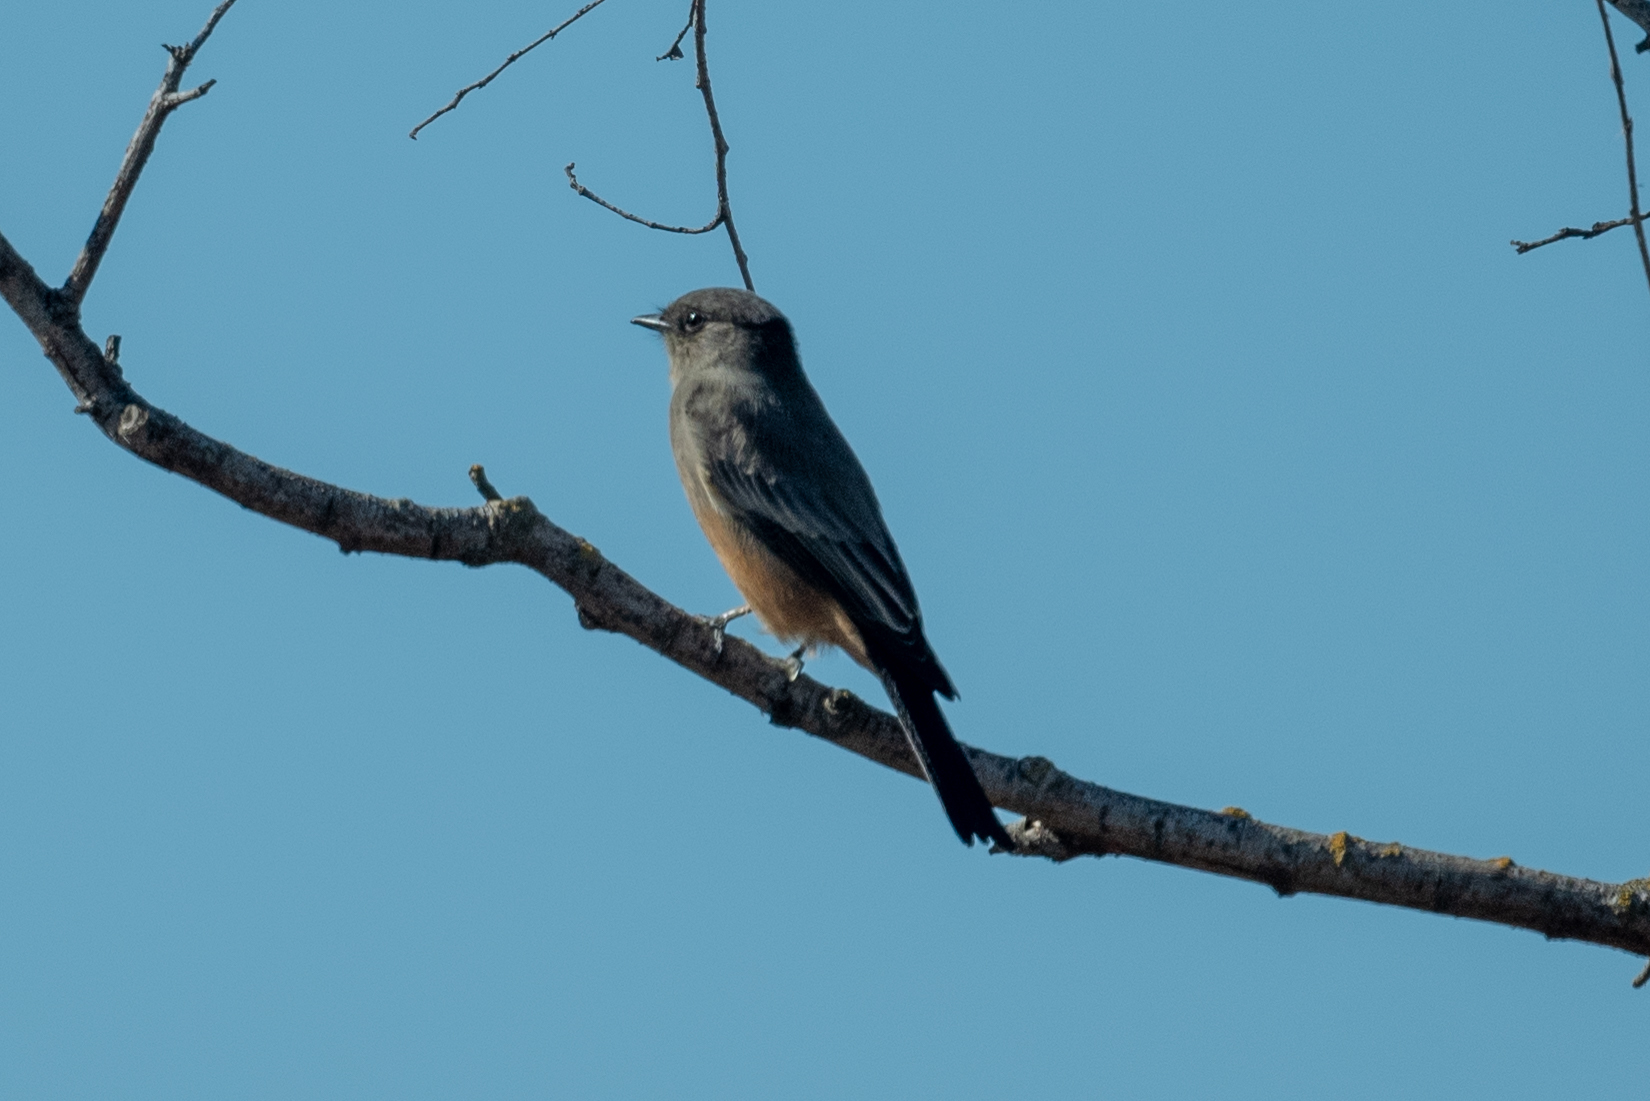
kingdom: Animalia
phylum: Chordata
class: Aves
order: Passeriformes
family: Tyrannidae
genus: Sayornis
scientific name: Sayornis saya
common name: Say's phoebe
